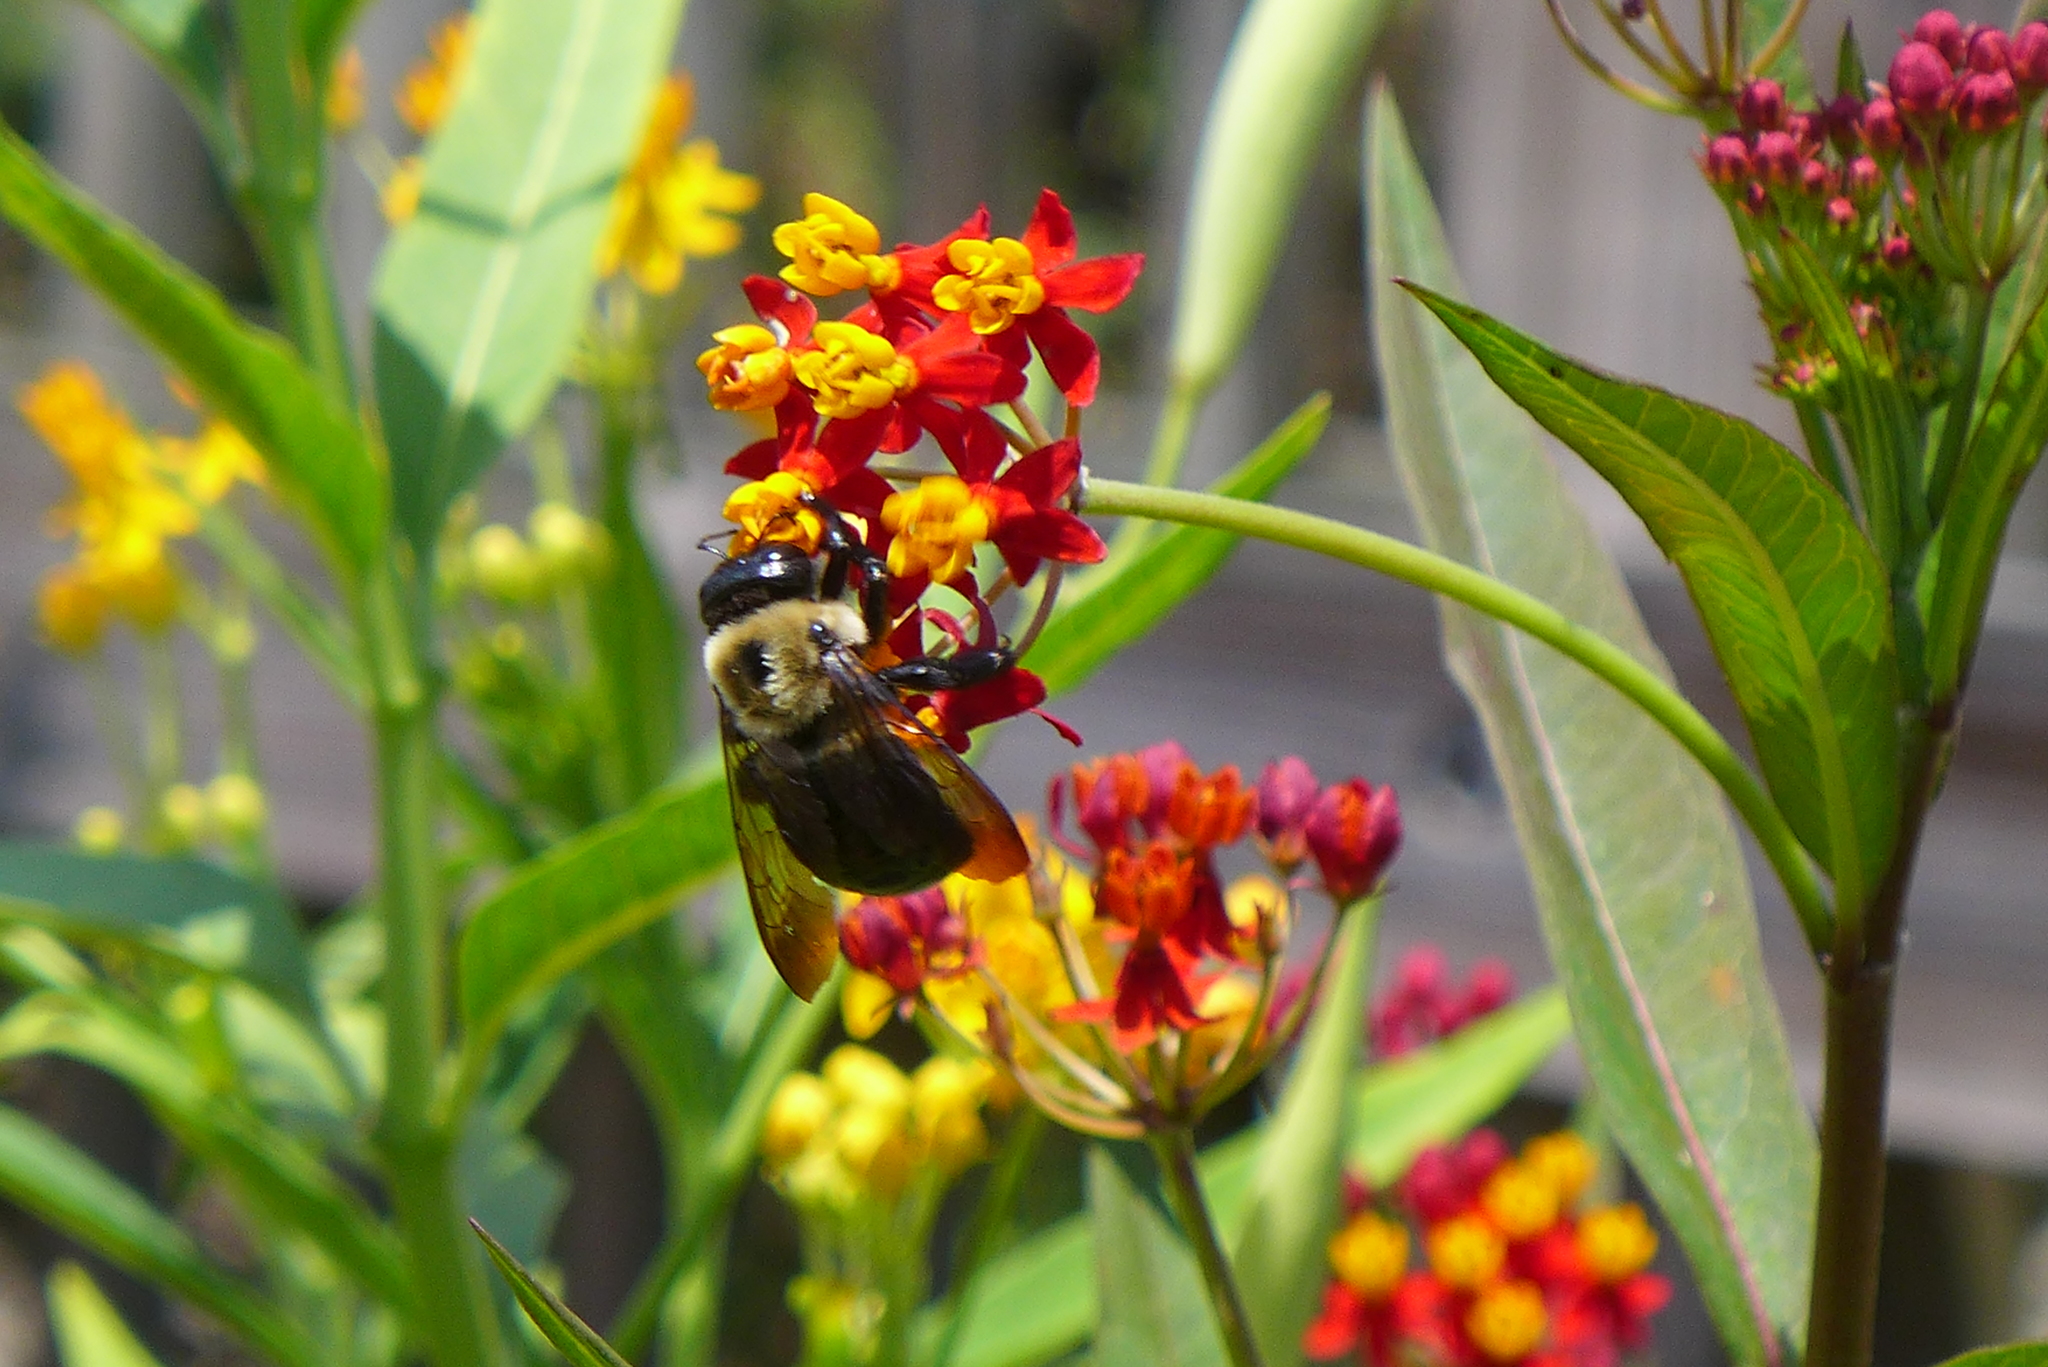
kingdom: Animalia
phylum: Arthropoda
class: Insecta
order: Hymenoptera
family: Apidae
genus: Xylocopa
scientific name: Xylocopa virginica
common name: Carpenter bee
